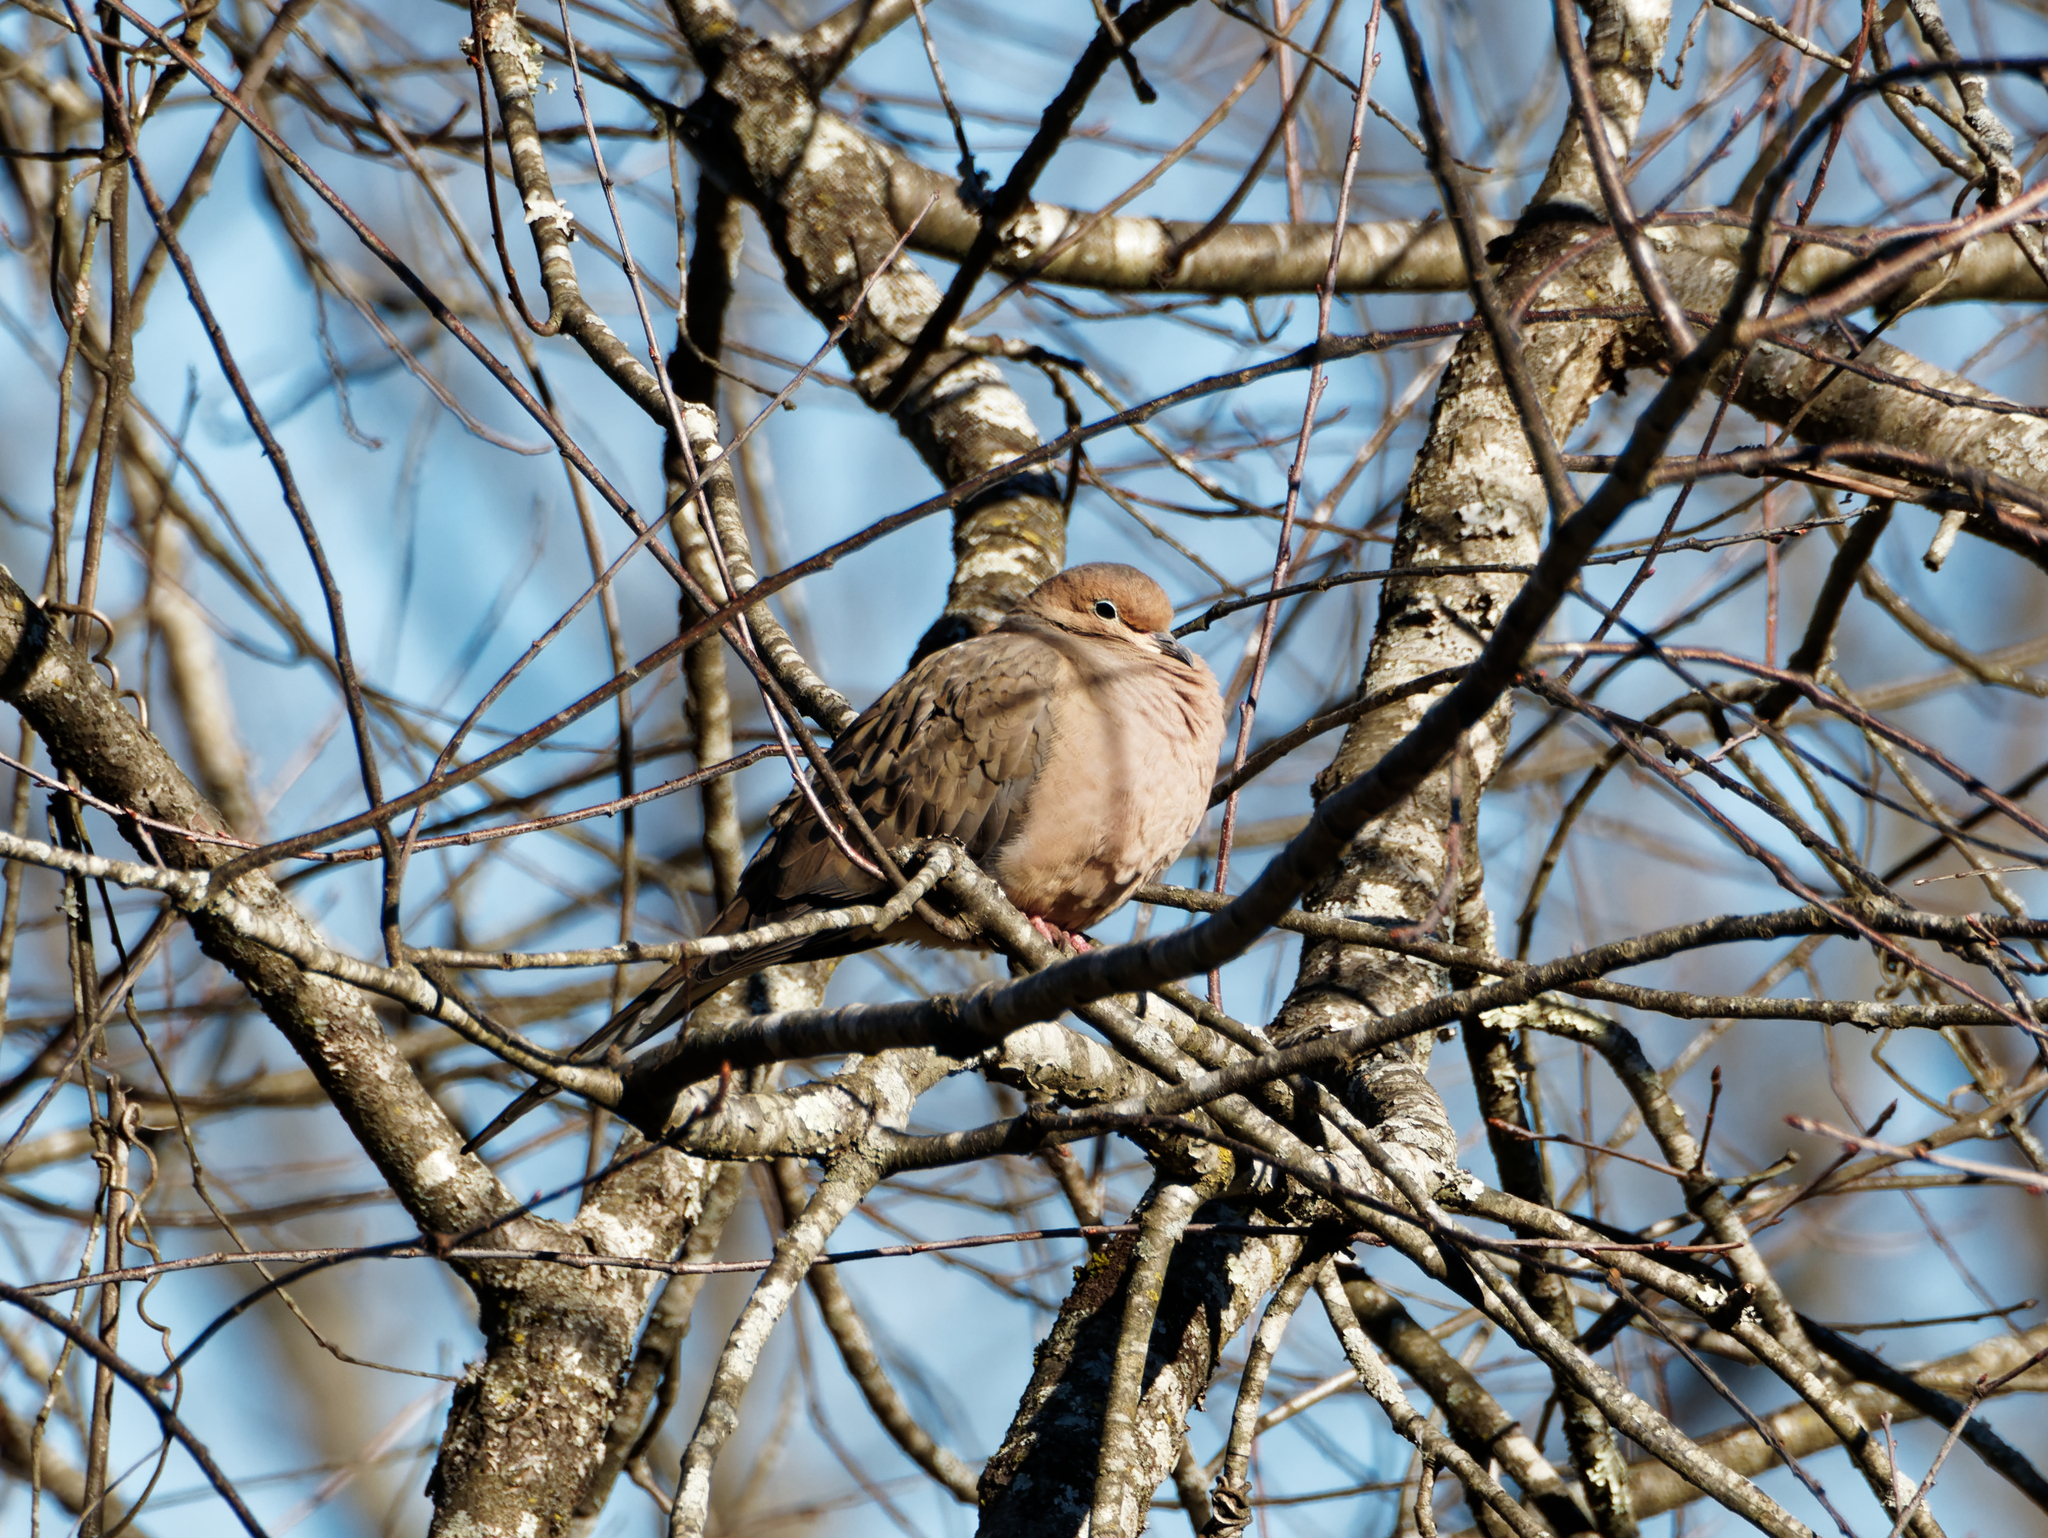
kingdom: Animalia
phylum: Chordata
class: Aves
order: Columbiformes
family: Columbidae
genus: Zenaida
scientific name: Zenaida macroura
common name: Mourning dove
